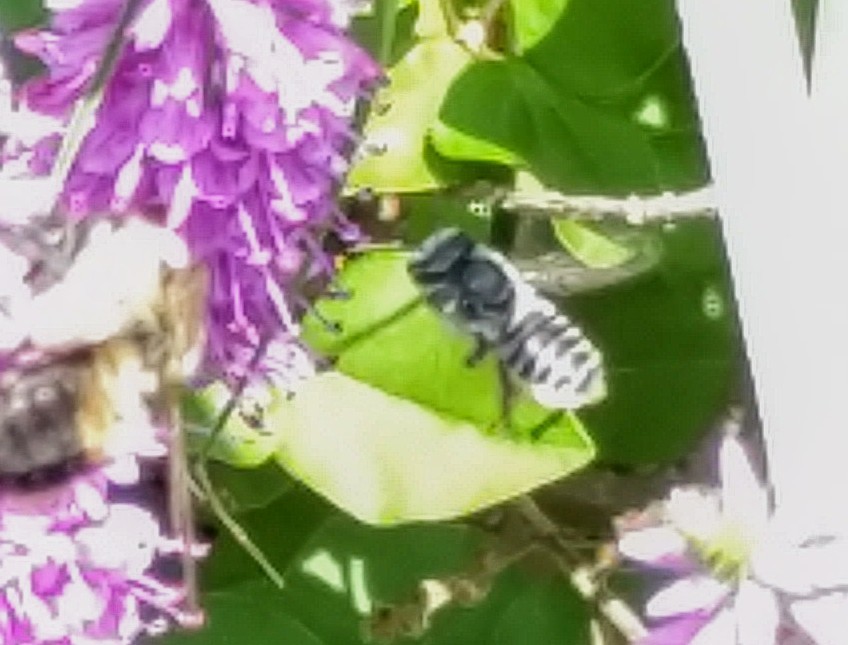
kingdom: Animalia
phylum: Arthropoda
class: Insecta
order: Hymenoptera
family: Megachilidae
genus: Megachile
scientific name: Megachile
